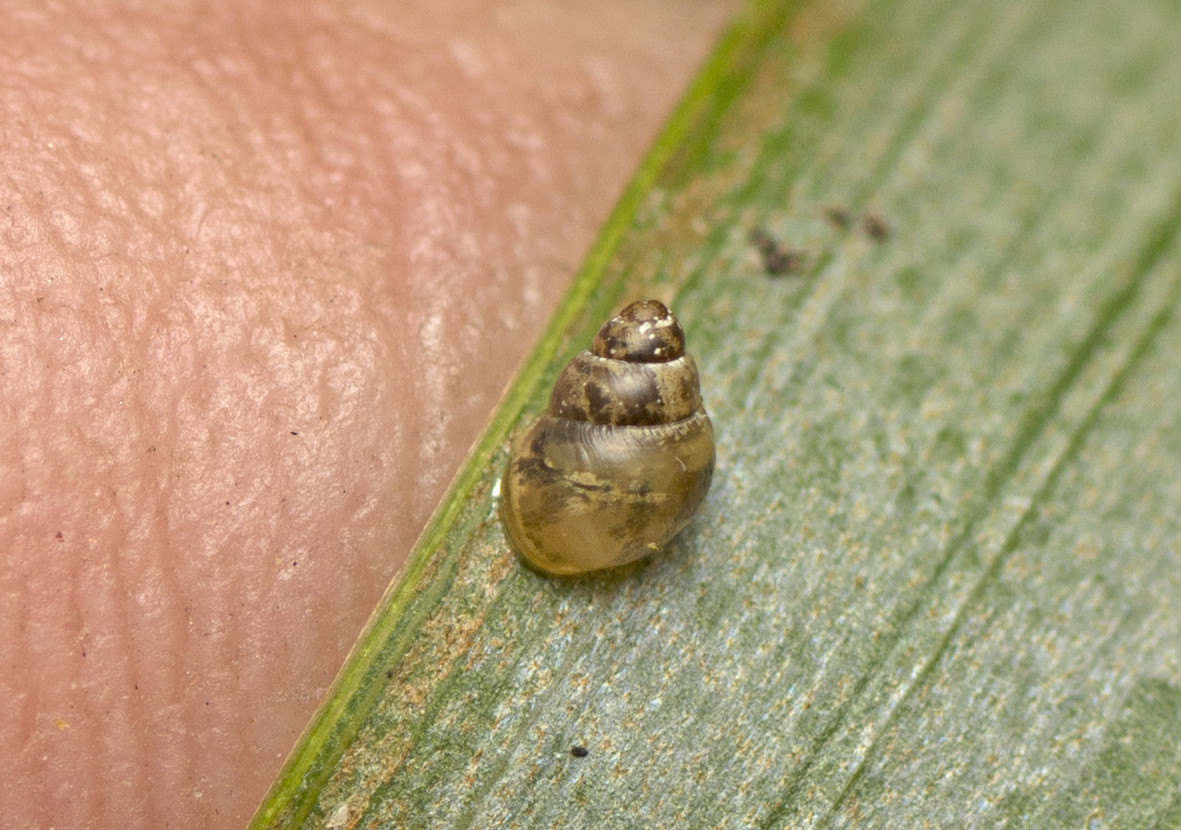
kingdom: Animalia
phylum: Mollusca
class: Gastropoda
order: Stylommatophora
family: Achatinellidae
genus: Tornatellinops
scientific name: Tornatellinops mastersi
